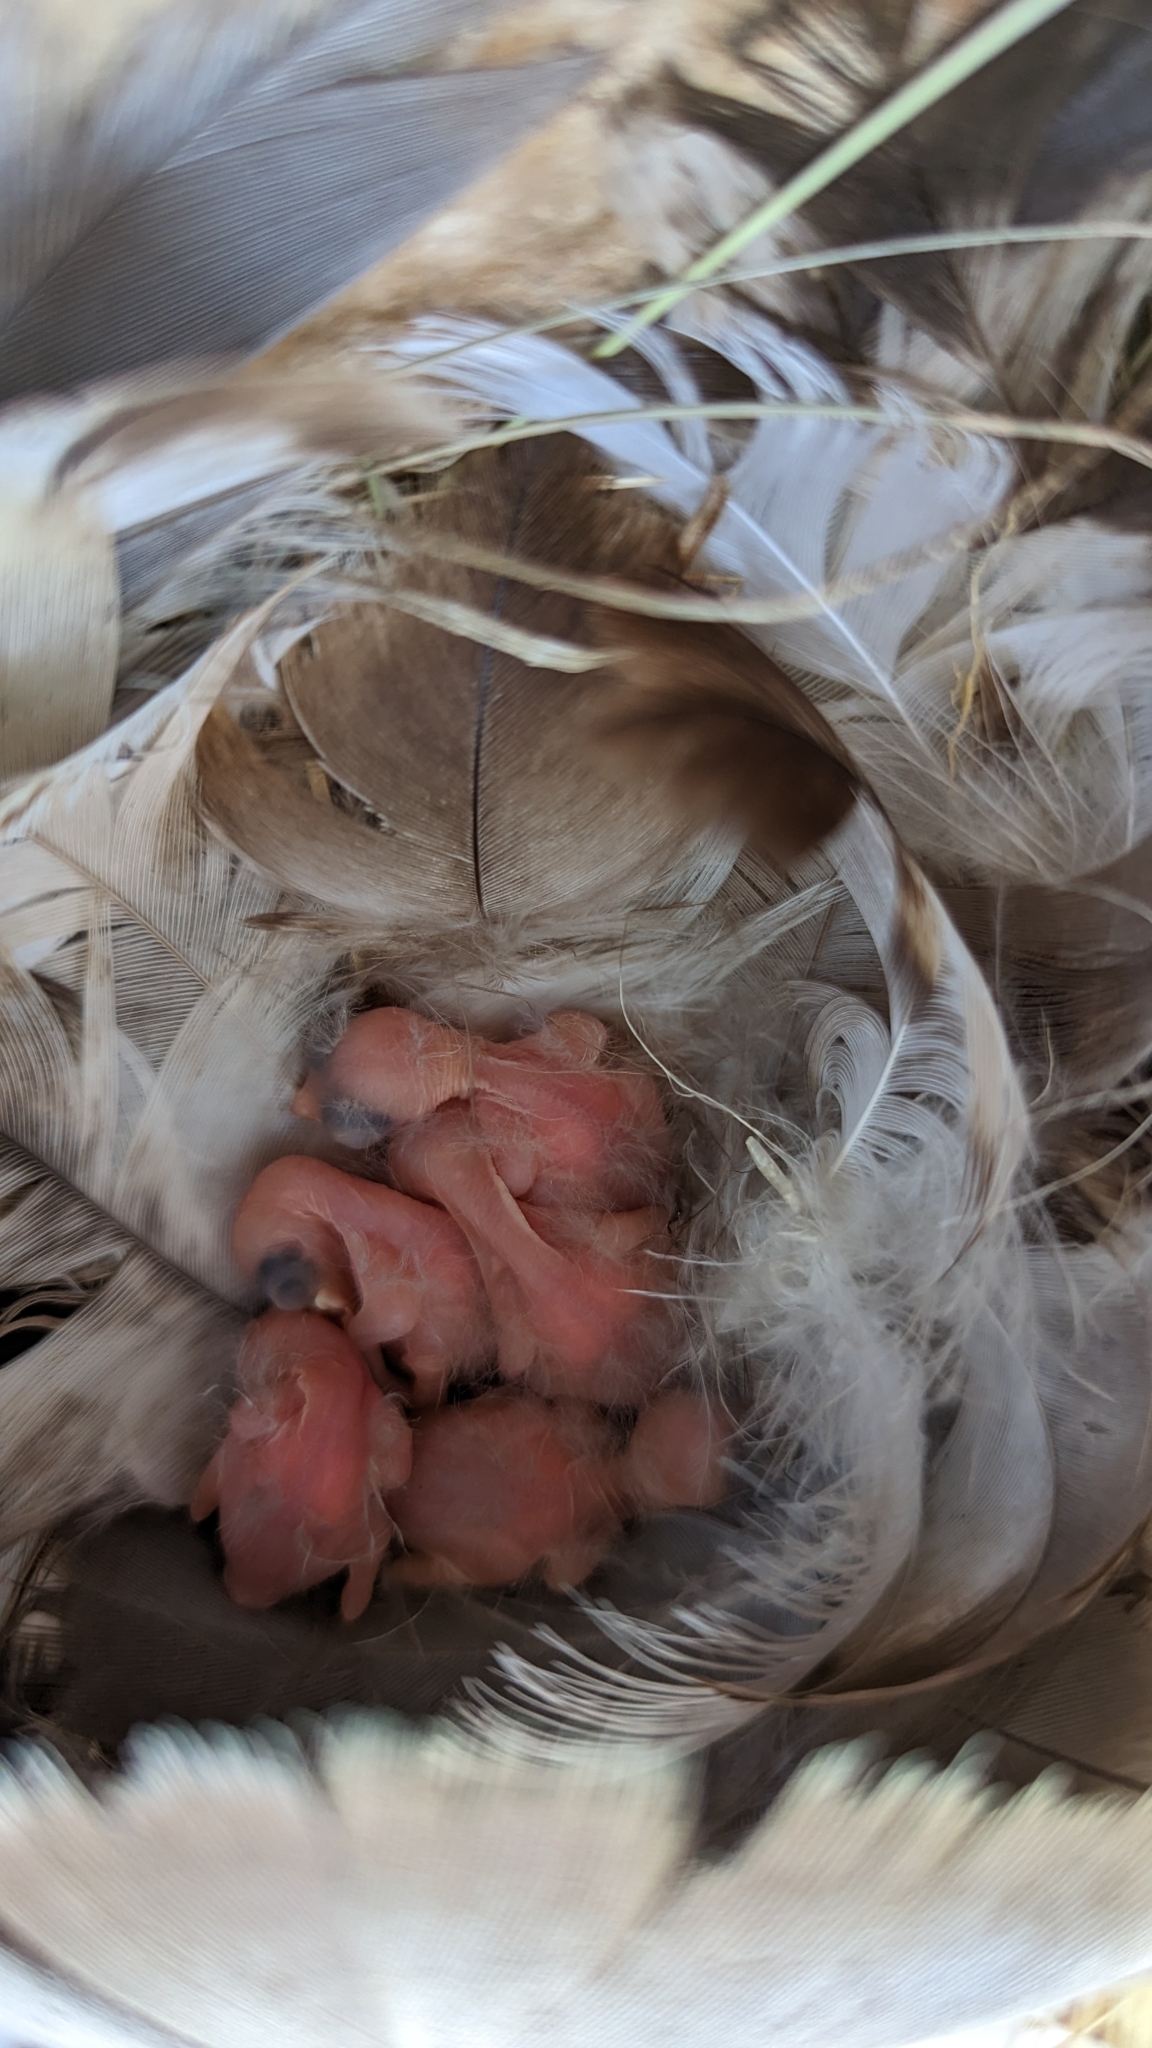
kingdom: Animalia
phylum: Chordata
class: Aves
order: Passeriformes
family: Hirundinidae
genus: Tachycineta
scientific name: Tachycineta bicolor
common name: Tree swallow
